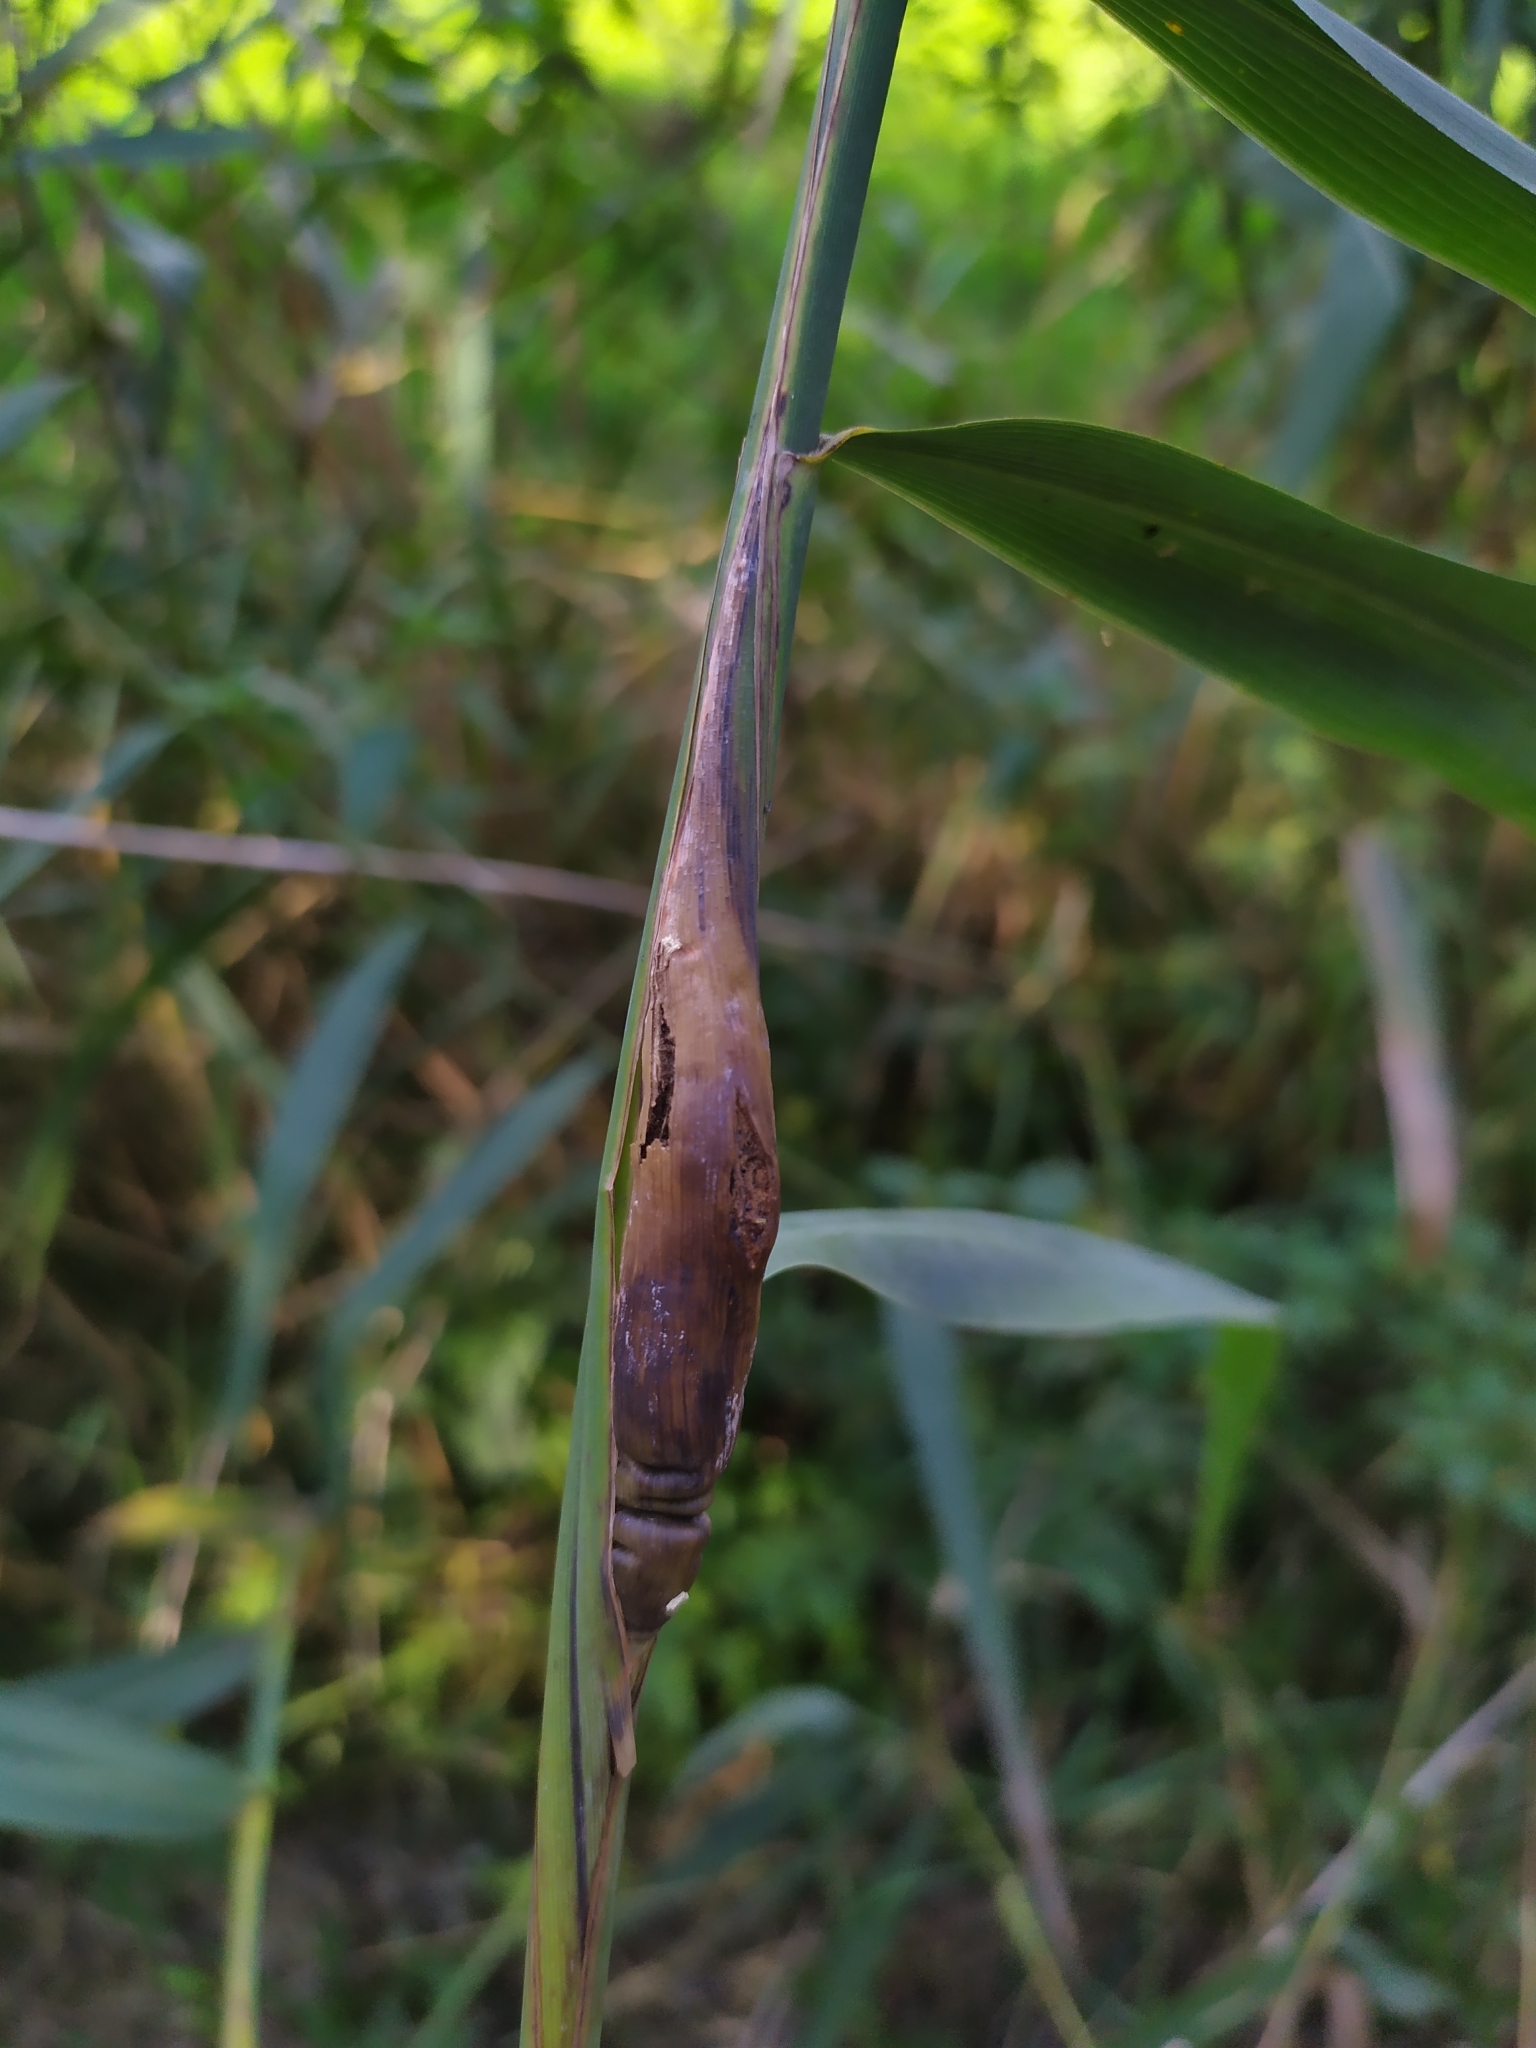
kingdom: Animalia
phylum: Arthropoda
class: Insecta
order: Diptera
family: Chloropidae
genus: Lipara
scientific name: Lipara lucens
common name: Frit fly
